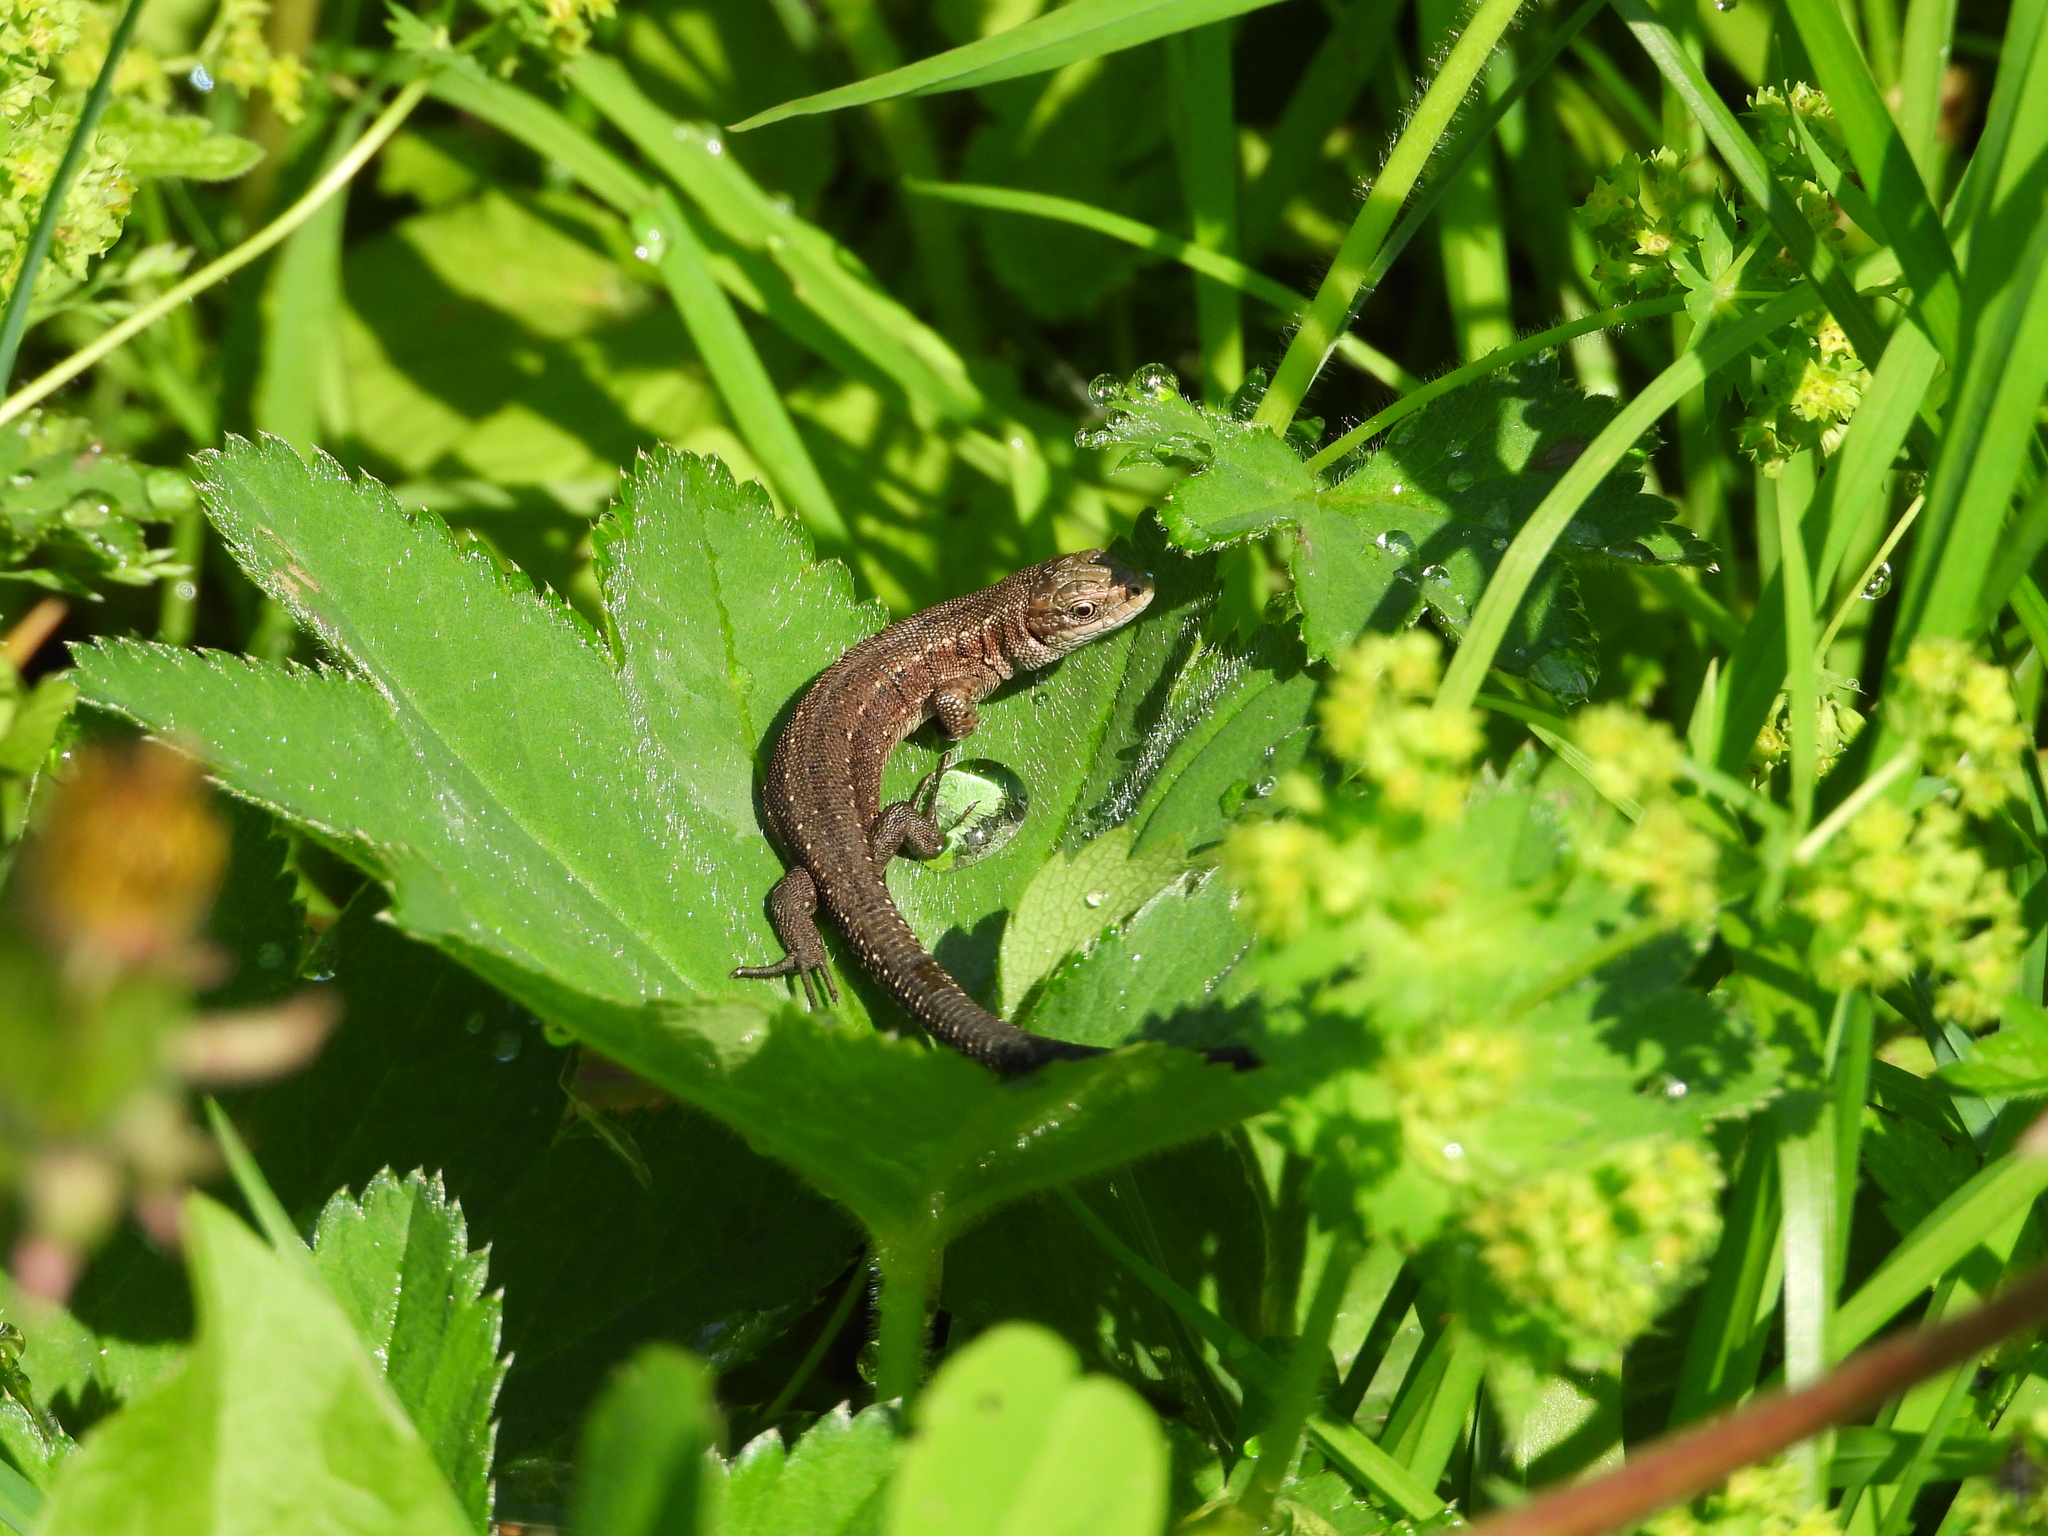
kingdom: Animalia
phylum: Chordata
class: Squamata
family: Lacertidae
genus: Zootoca
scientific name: Zootoca vivipara
